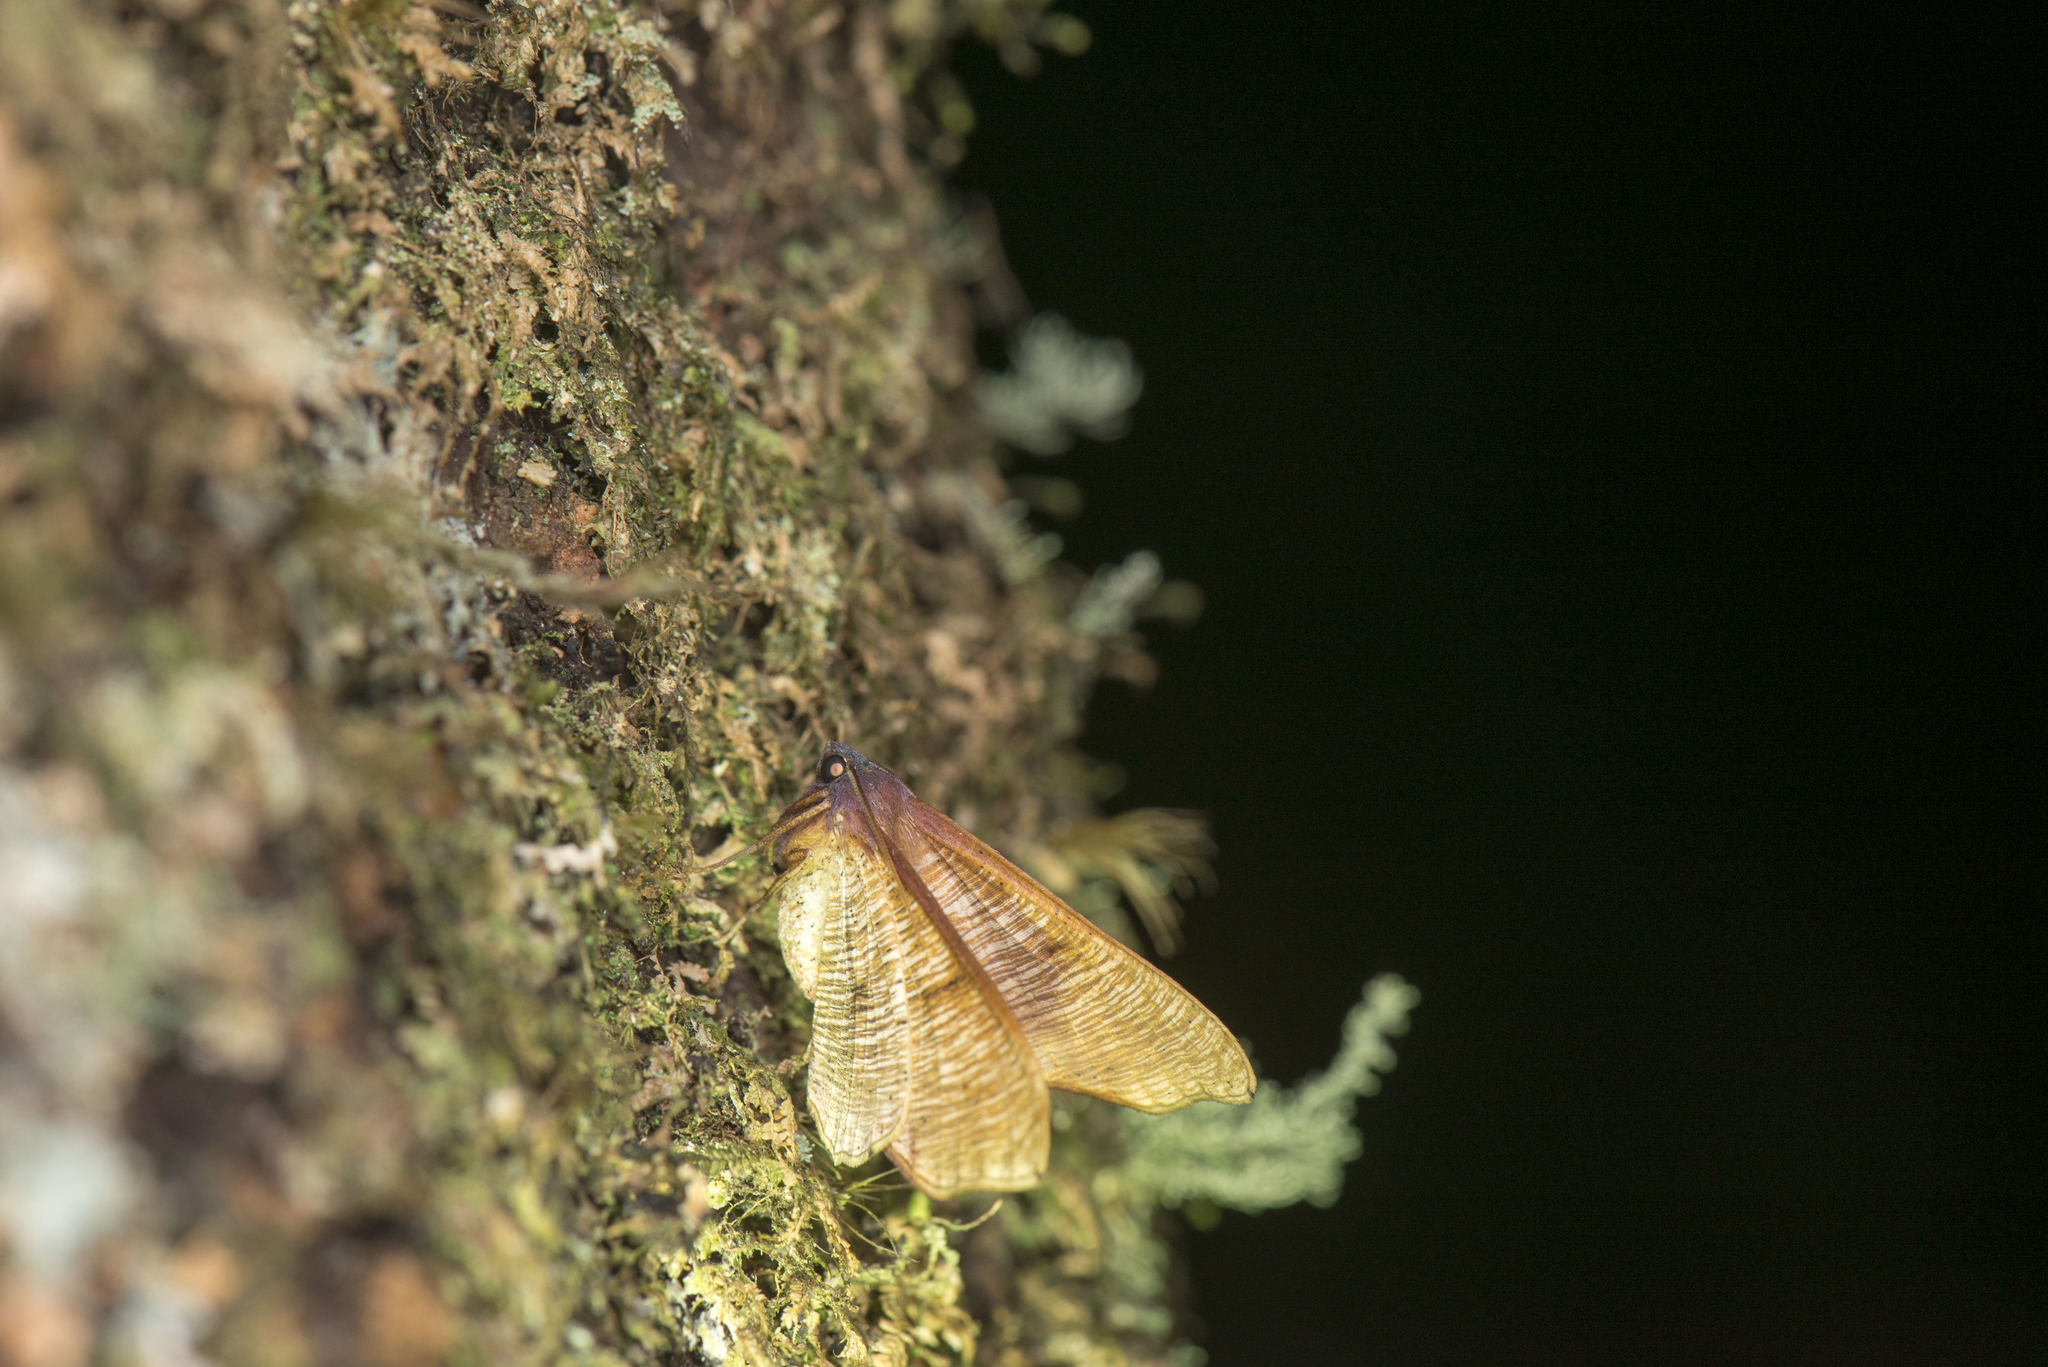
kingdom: Animalia
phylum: Arthropoda
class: Insecta
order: Lepidoptera
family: Geometridae
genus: Plagodis
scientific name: Plagodis reticulata
